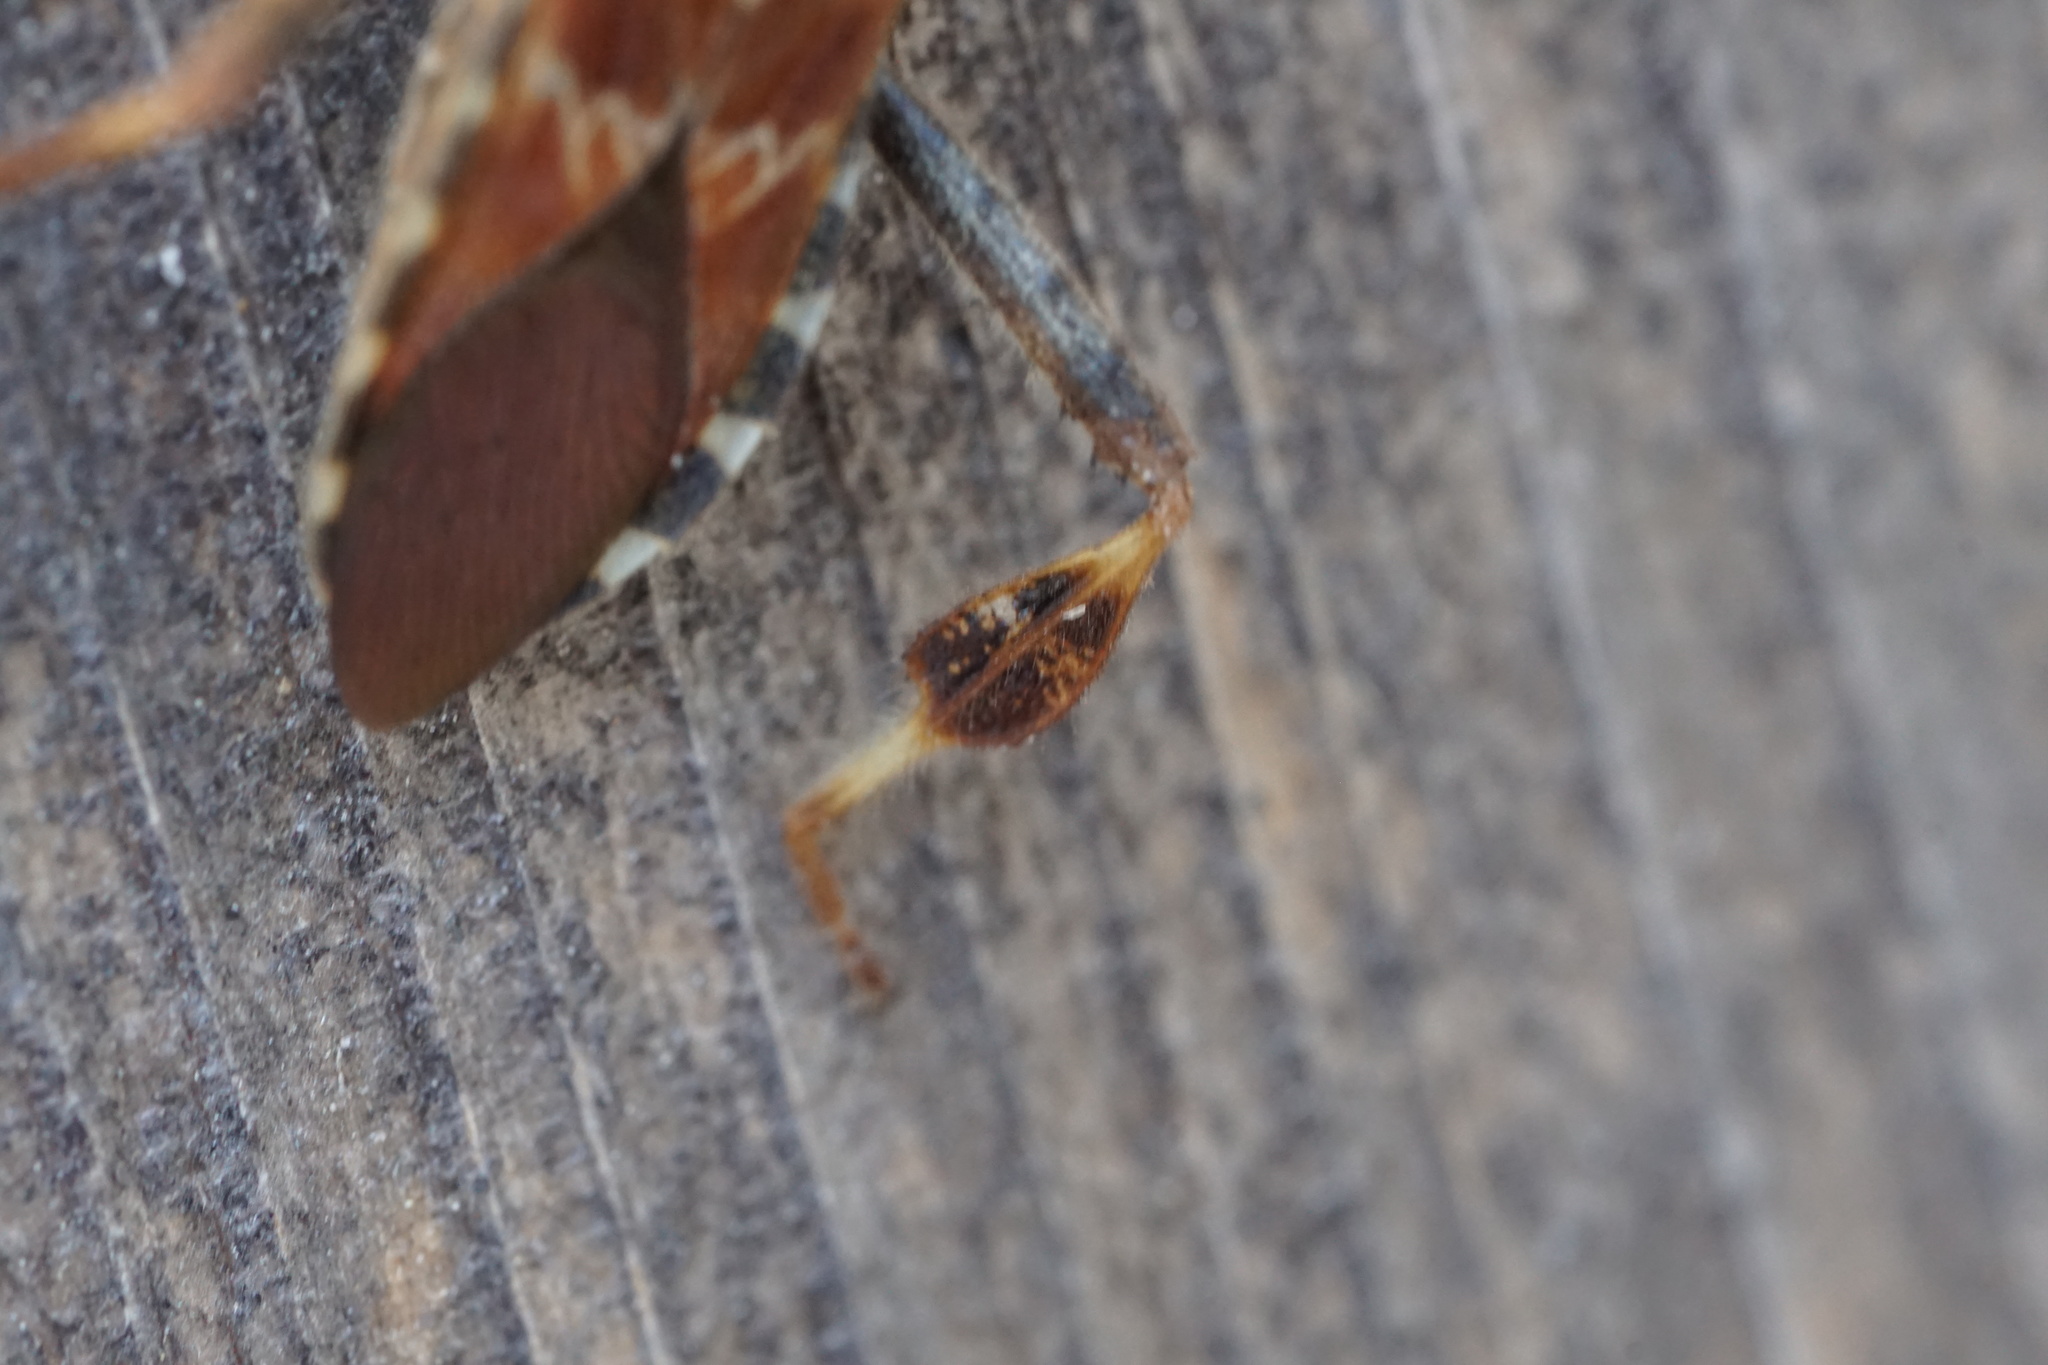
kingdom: Animalia
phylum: Arthropoda
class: Insecta
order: Hemiptera
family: Coreidae
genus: Leptoglossus
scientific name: Leptoglossus occidentalis
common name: Western conifer-seed bug
